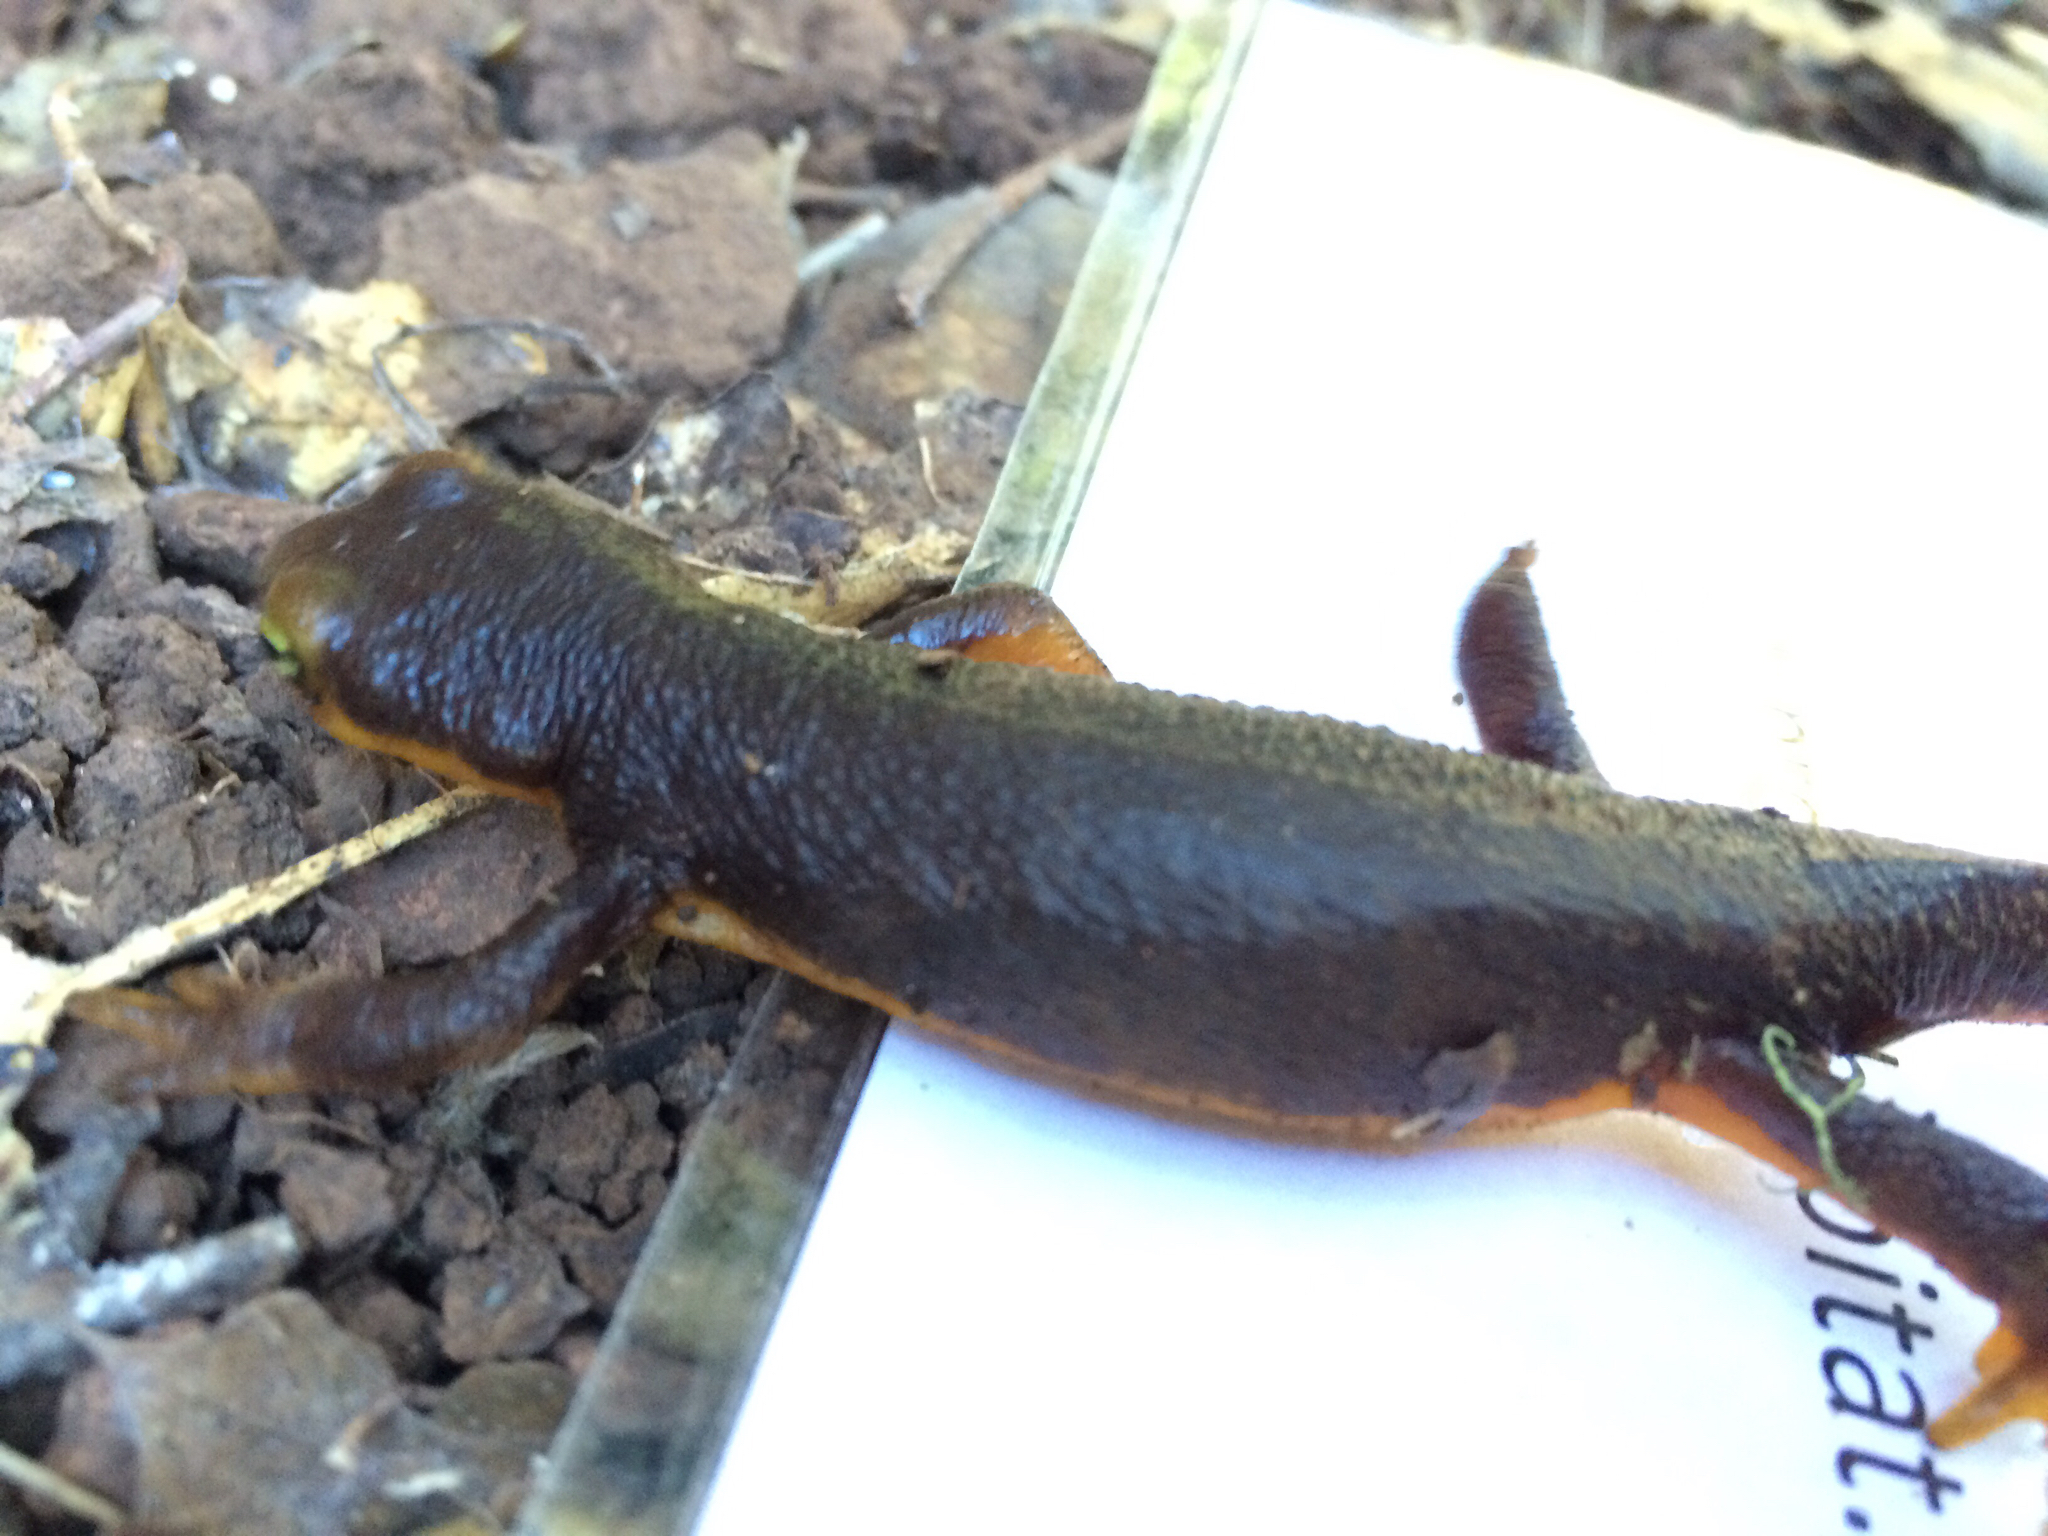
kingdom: Animalia
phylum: Chordata
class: Amphibia
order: Caudata
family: Salamandridae
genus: Taricha
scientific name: Taricha torosa
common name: California newt
